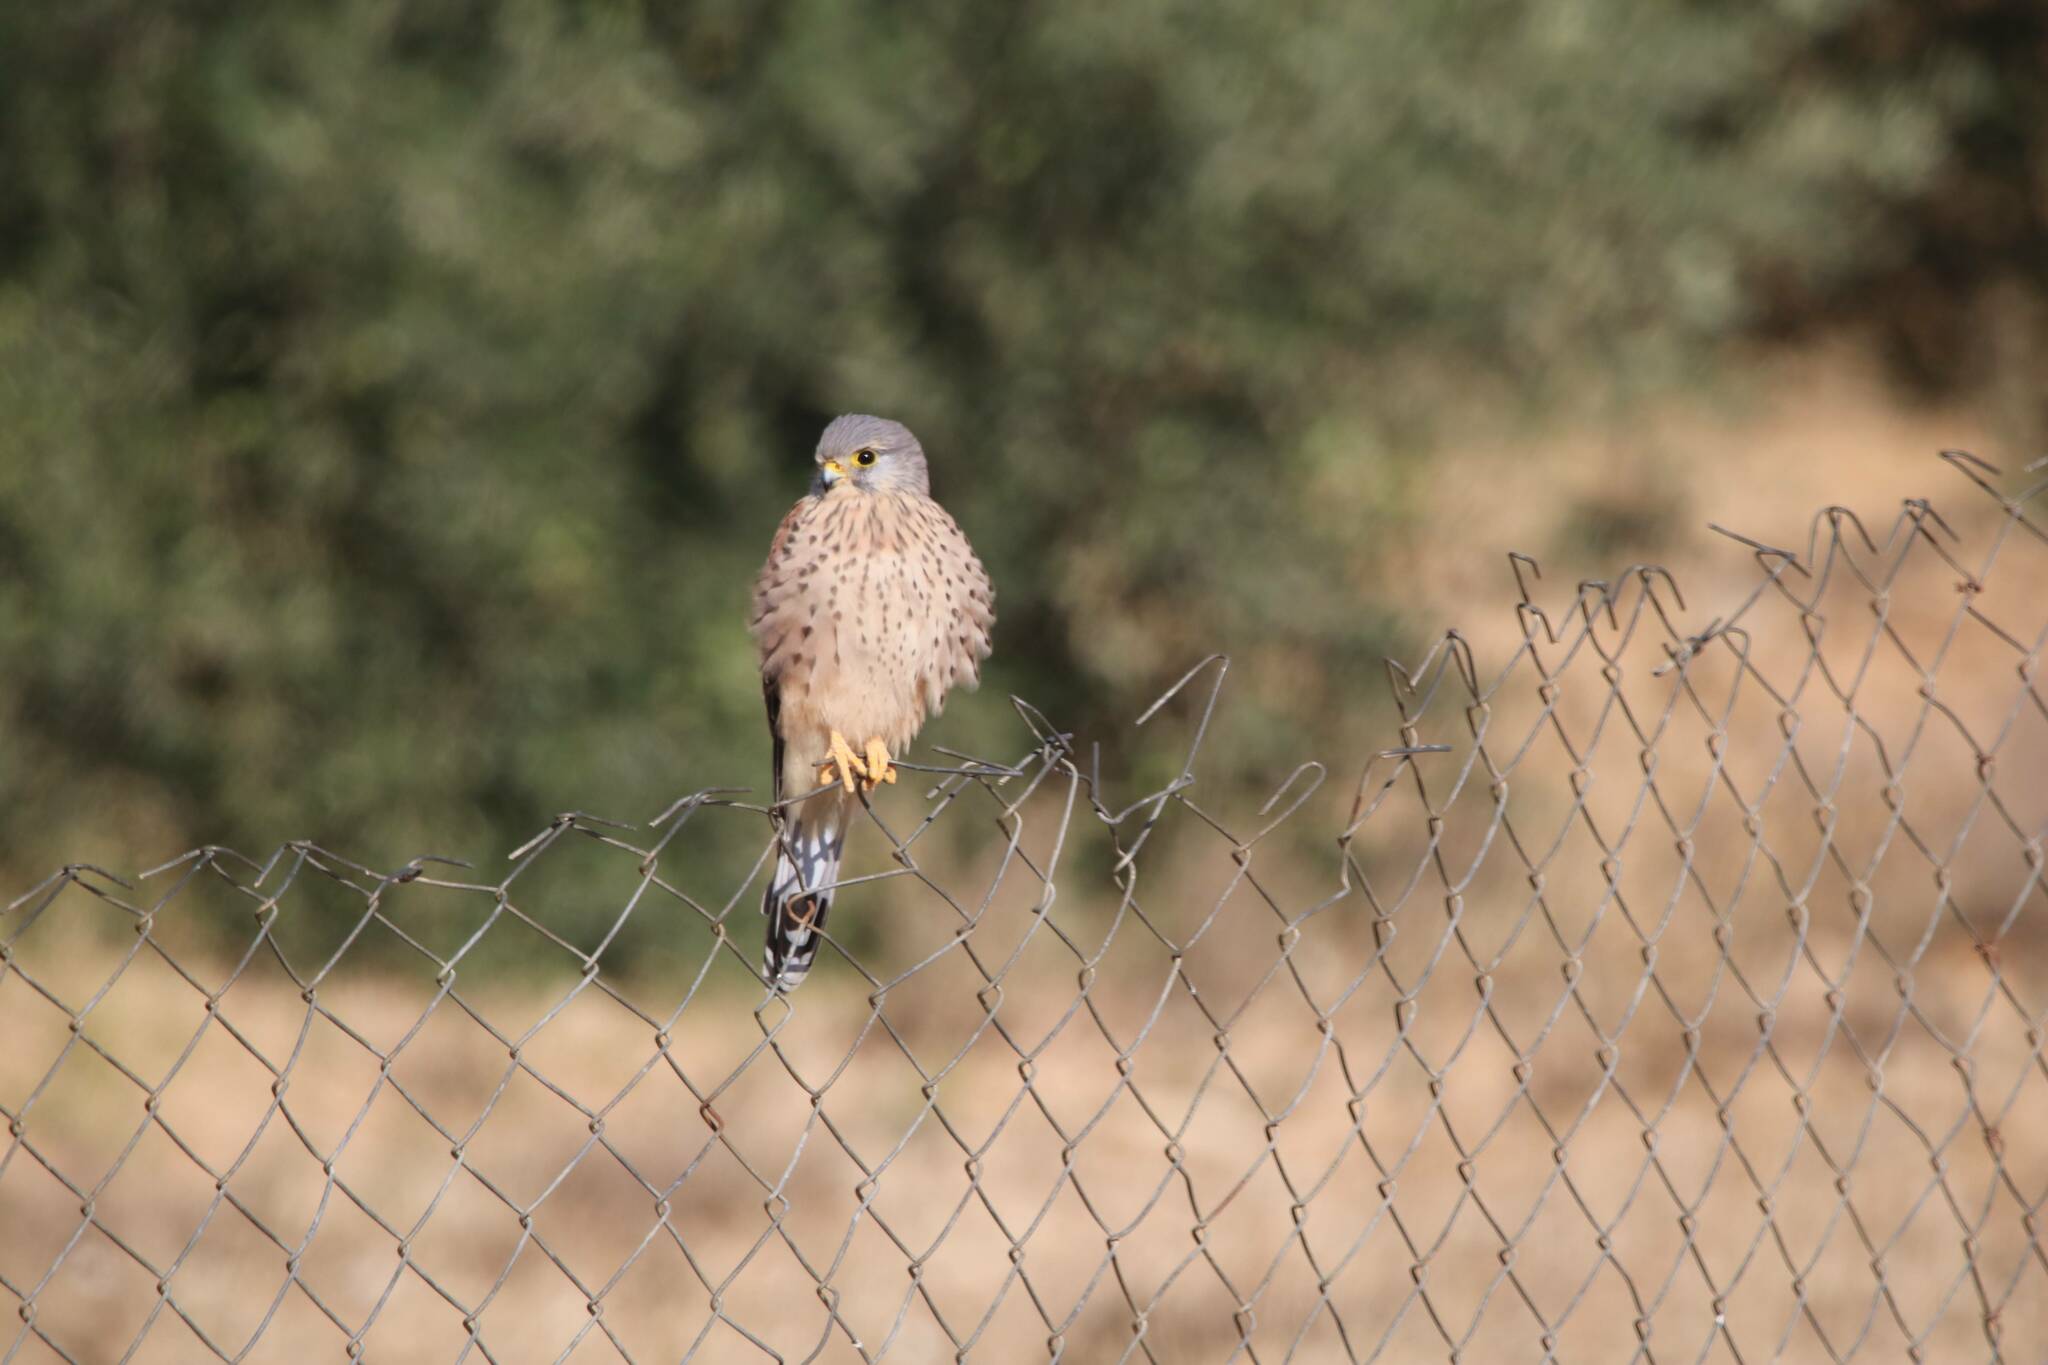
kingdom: Animalia
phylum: Chordata
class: Aves
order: Falconiformes
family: Falconidae
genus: Falco
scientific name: Falco tinnunculus
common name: Common kestrel
